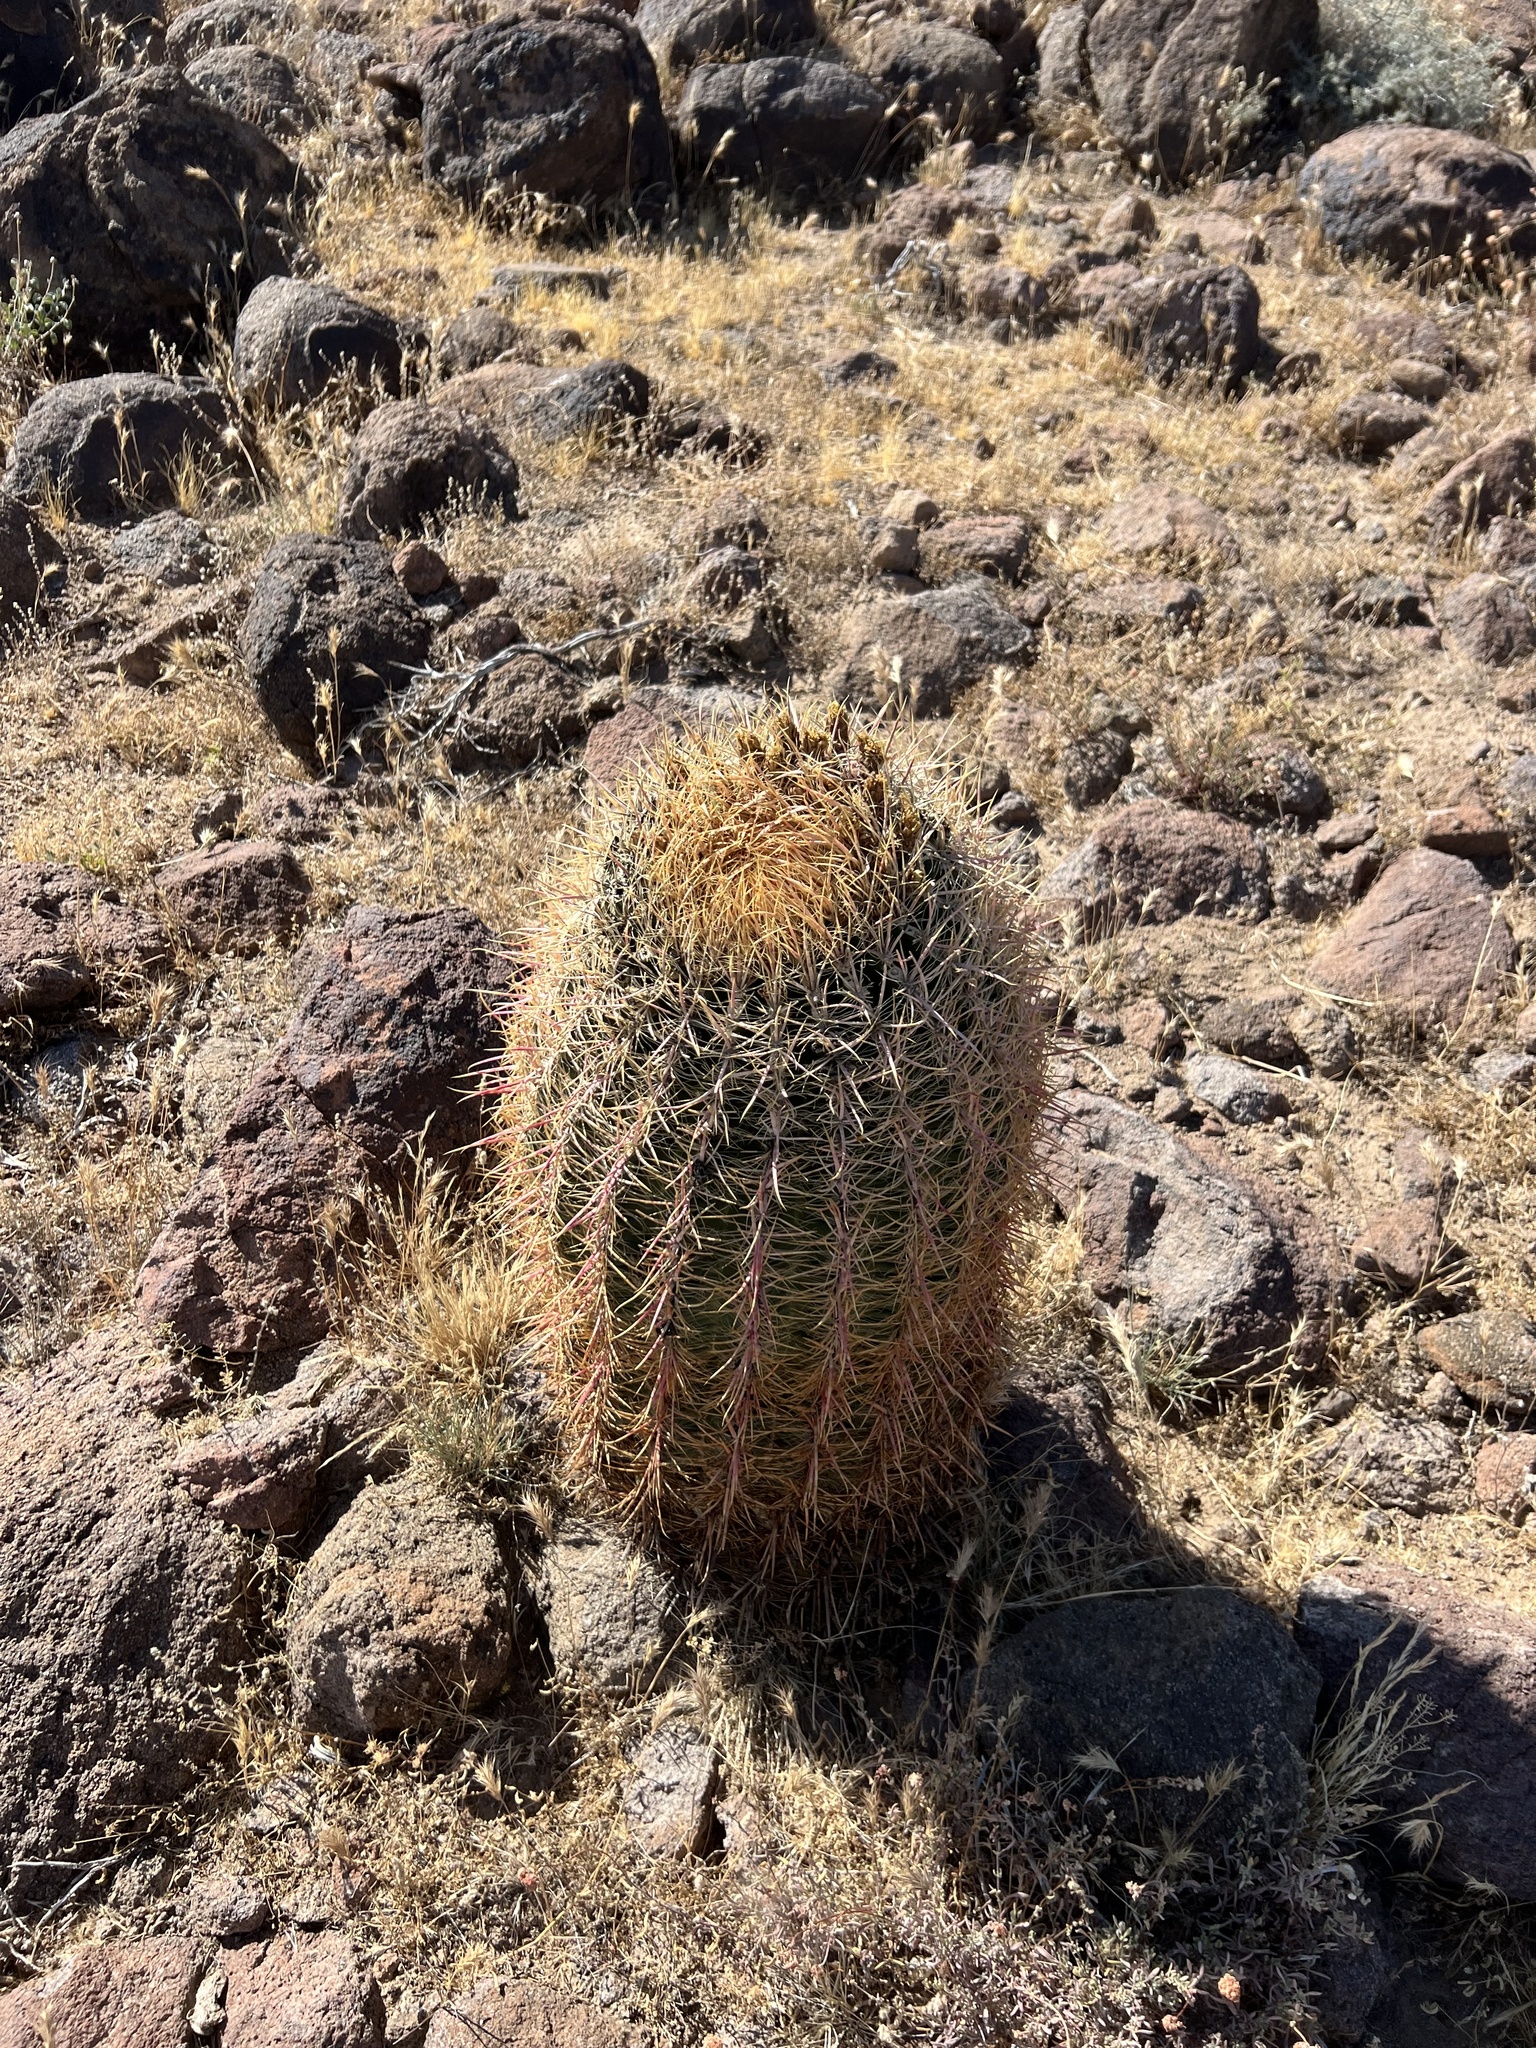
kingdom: Plantae
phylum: Tracheophyta
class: Magnoliopsida
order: Caryophyllales
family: Cactaceae
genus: Ferocactus
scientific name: Ferocactus cylindraceus
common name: California barrel cactus
